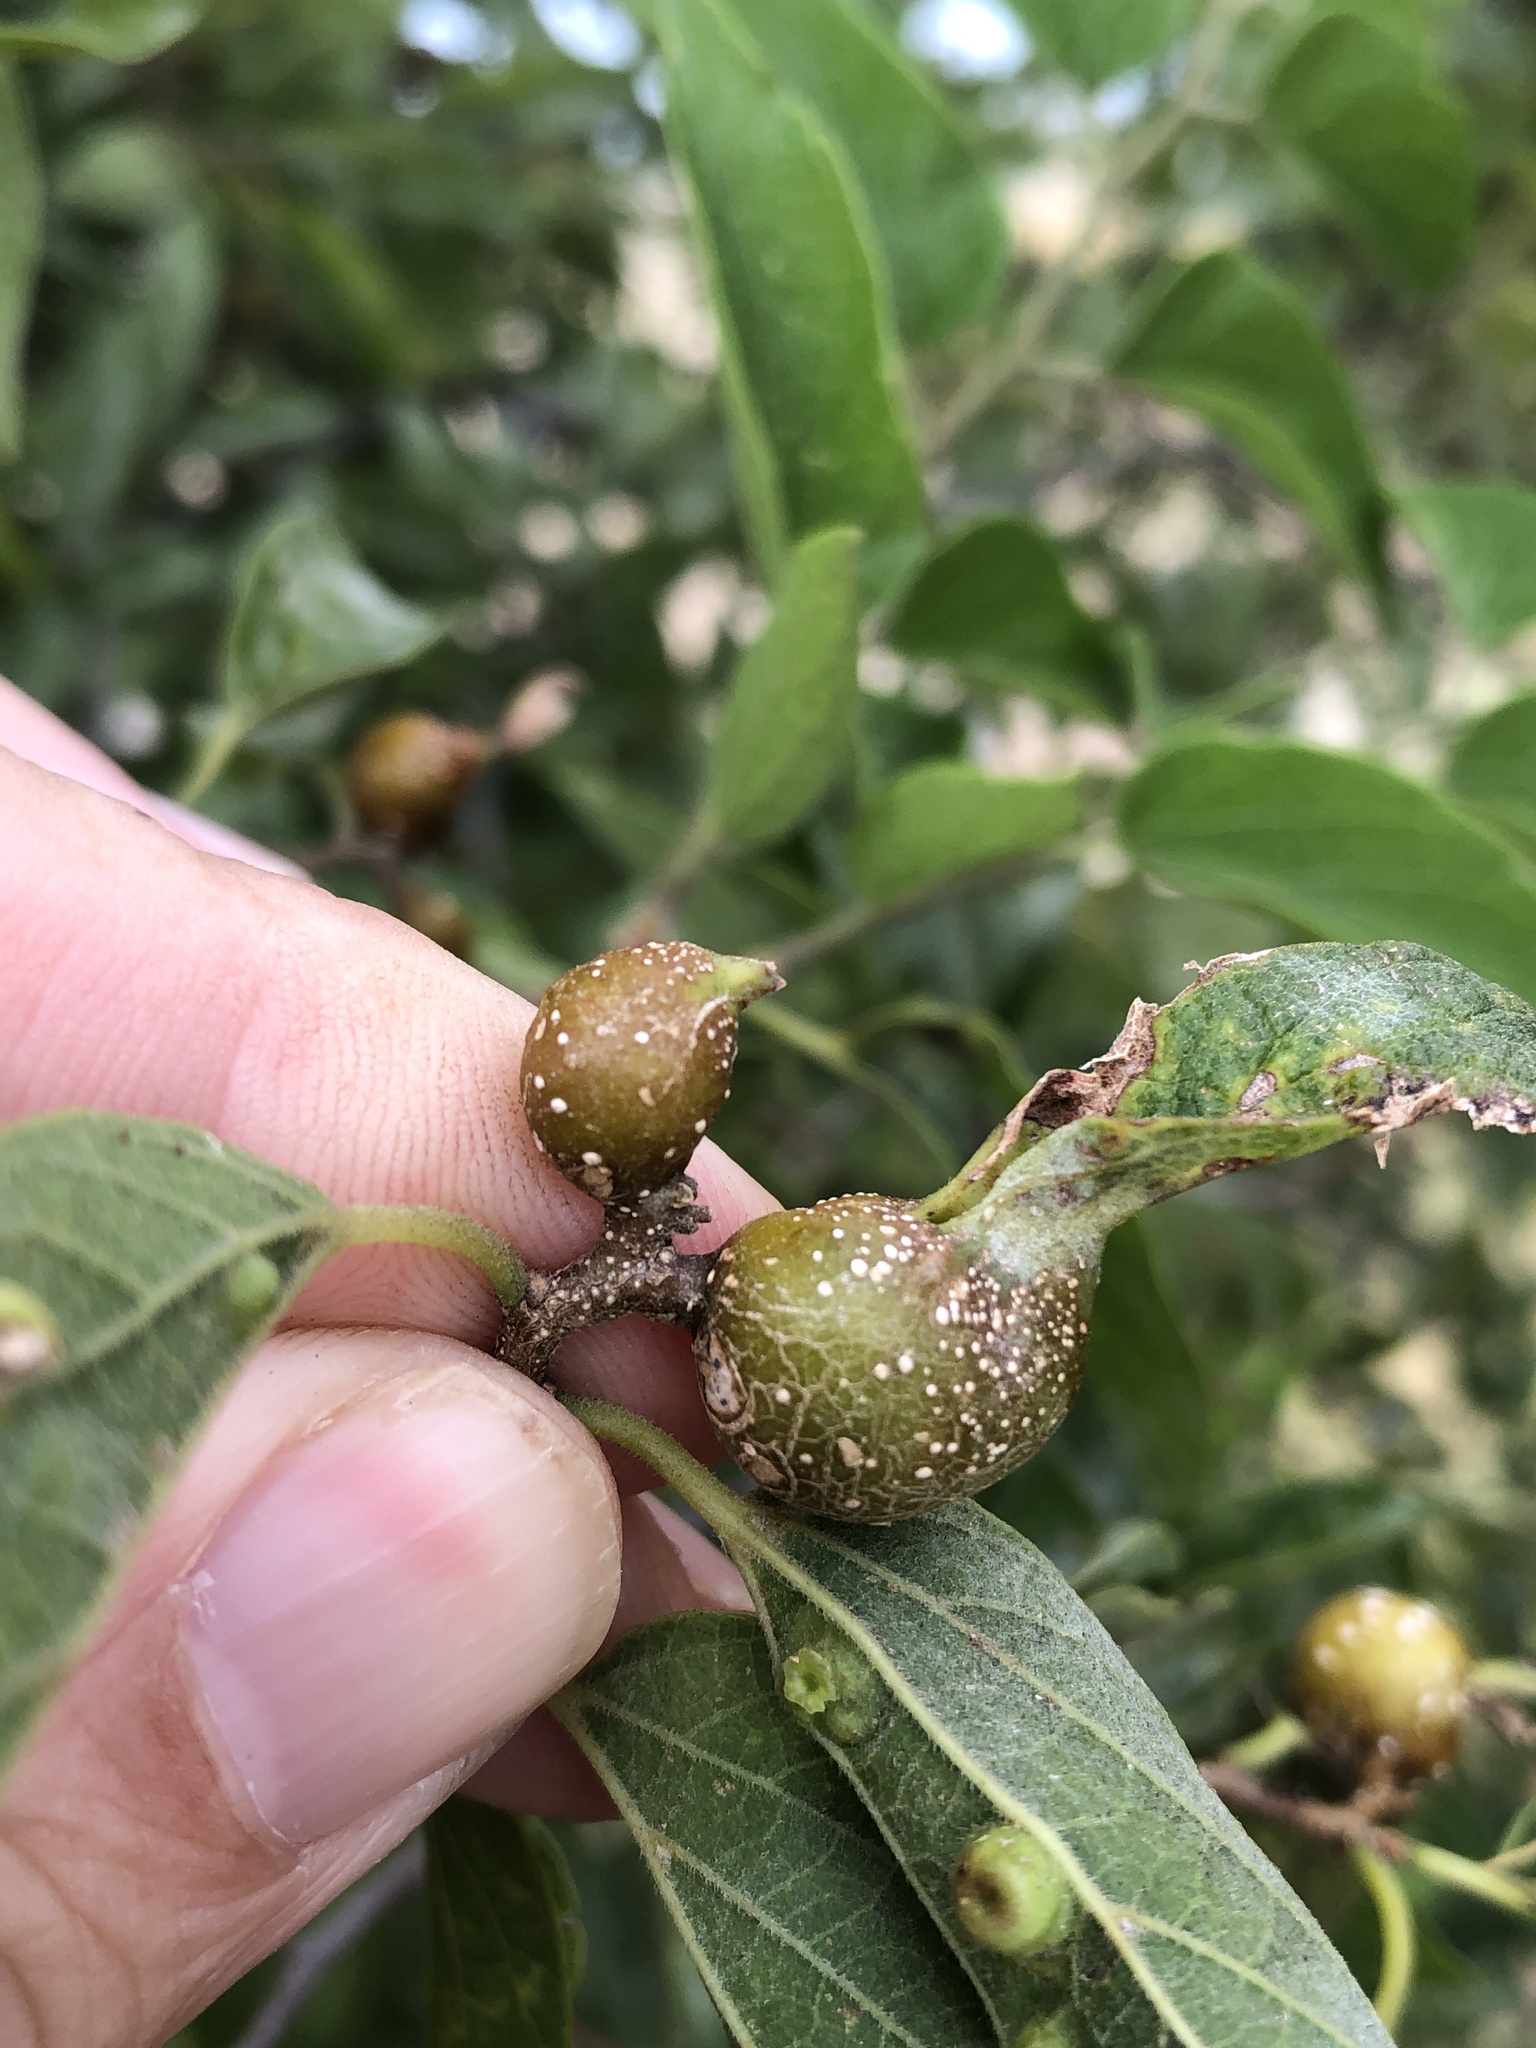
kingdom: Animalia
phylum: Arthropoda
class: Insecta
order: Hemiptera
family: Aphalaridae
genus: Pachypsylla
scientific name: Pachypsylla venusta
